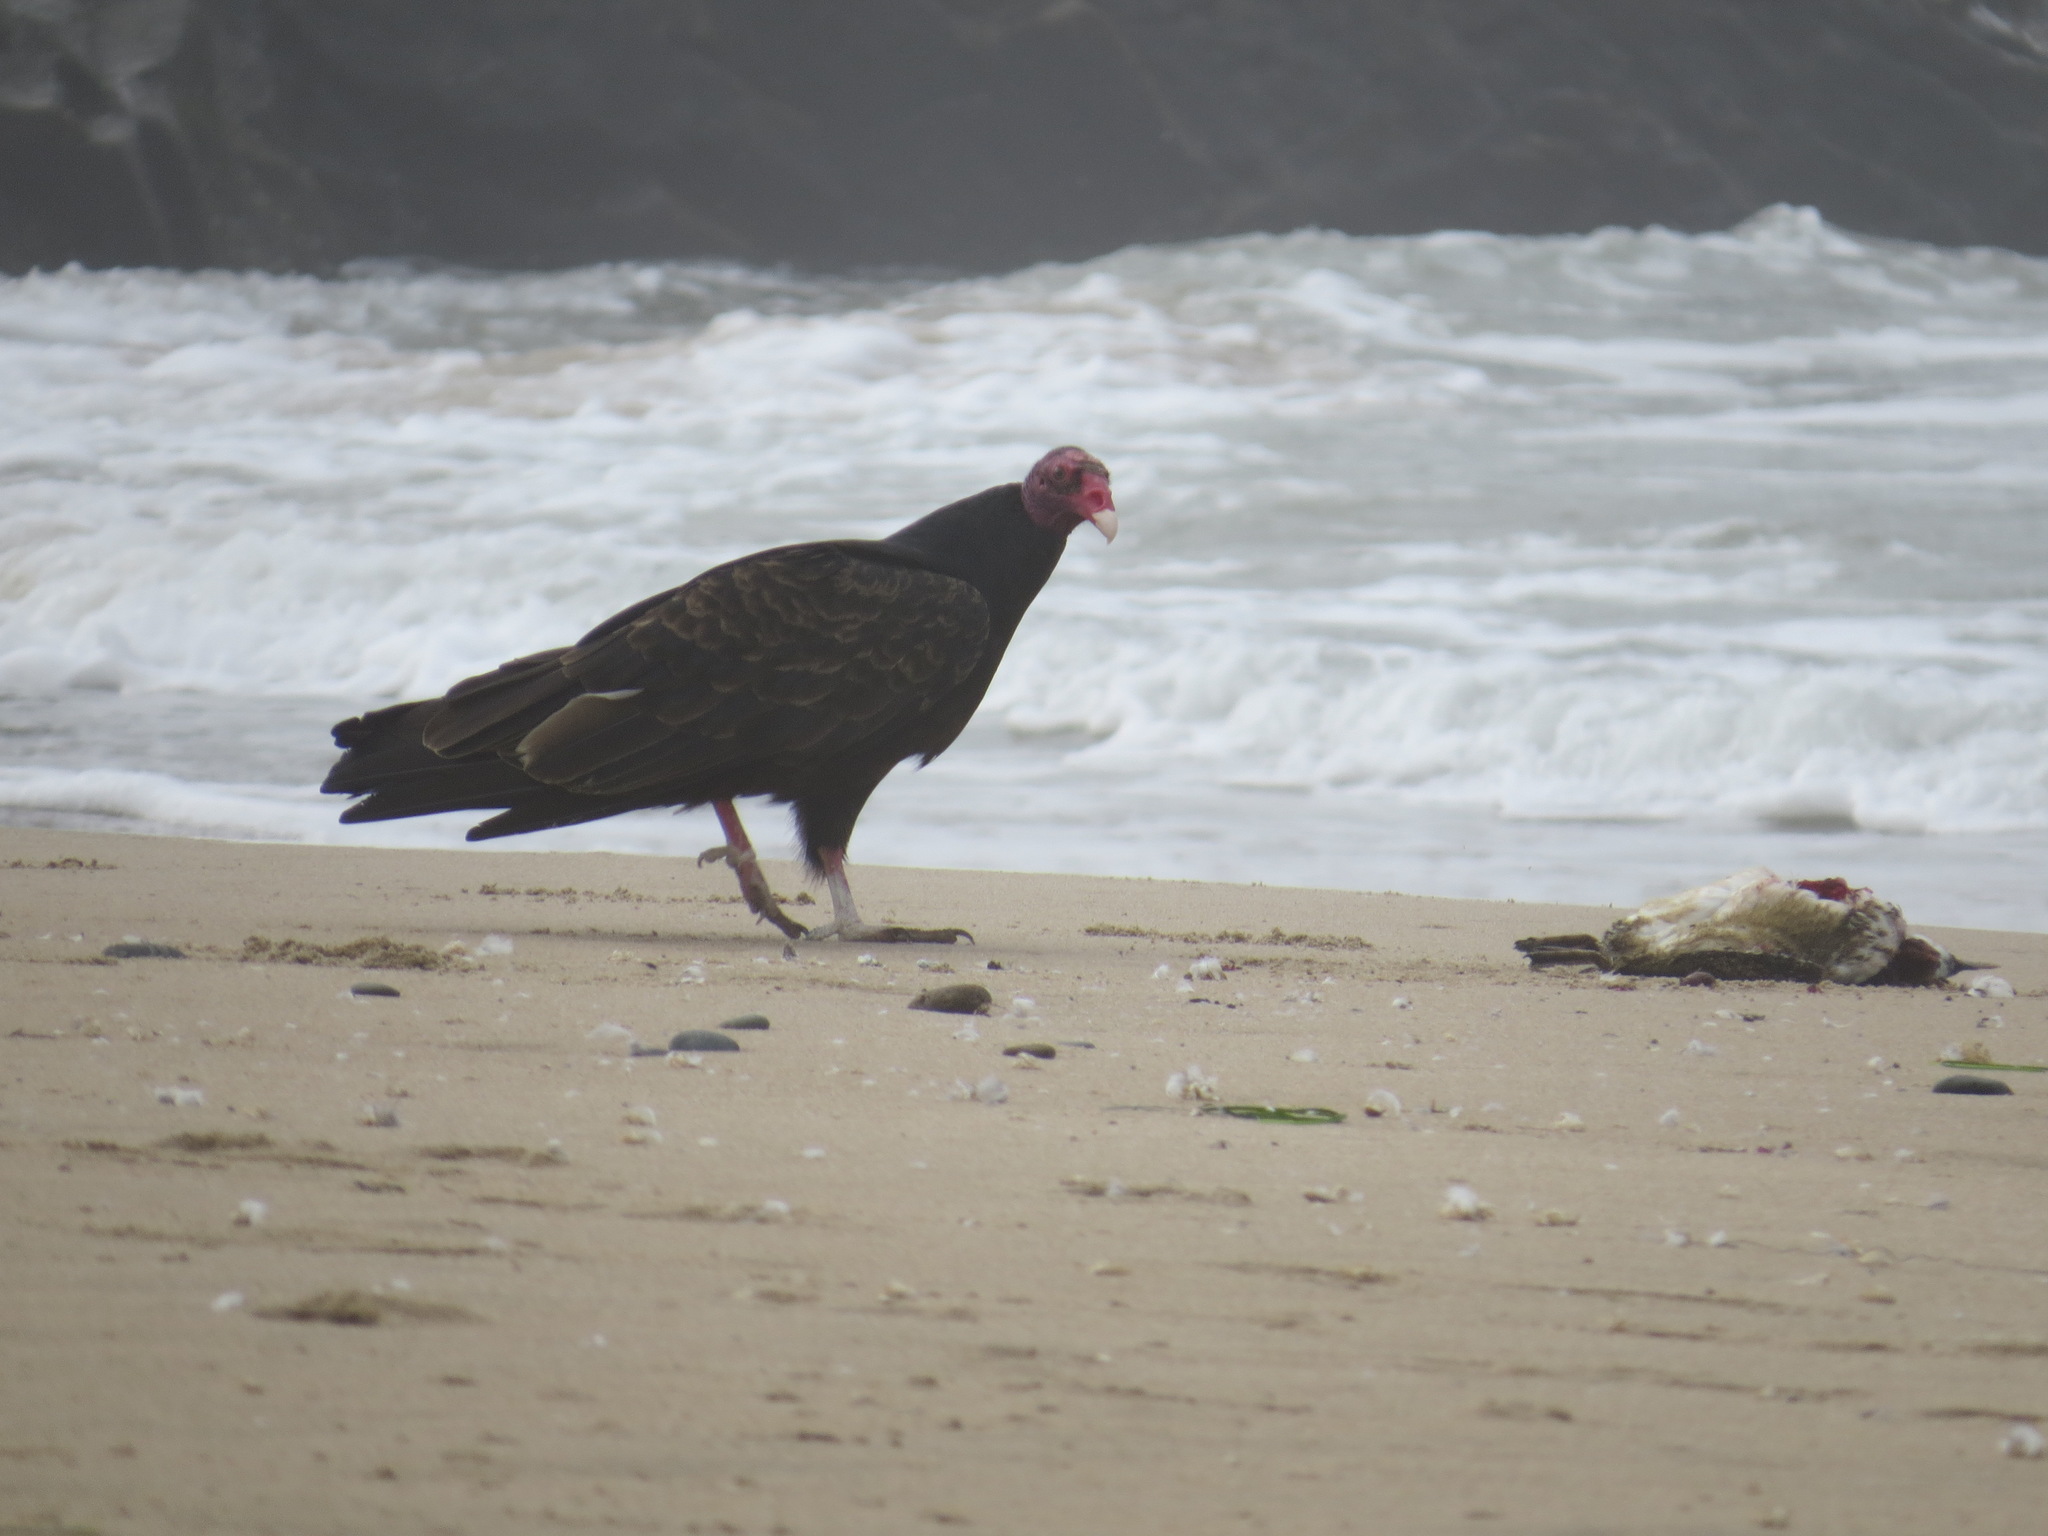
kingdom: Animalia
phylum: Chordata
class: Aves
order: Accipitriformes
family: Cathartidae
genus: Cathartes
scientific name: Cathartes aura
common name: Turkey vulture
